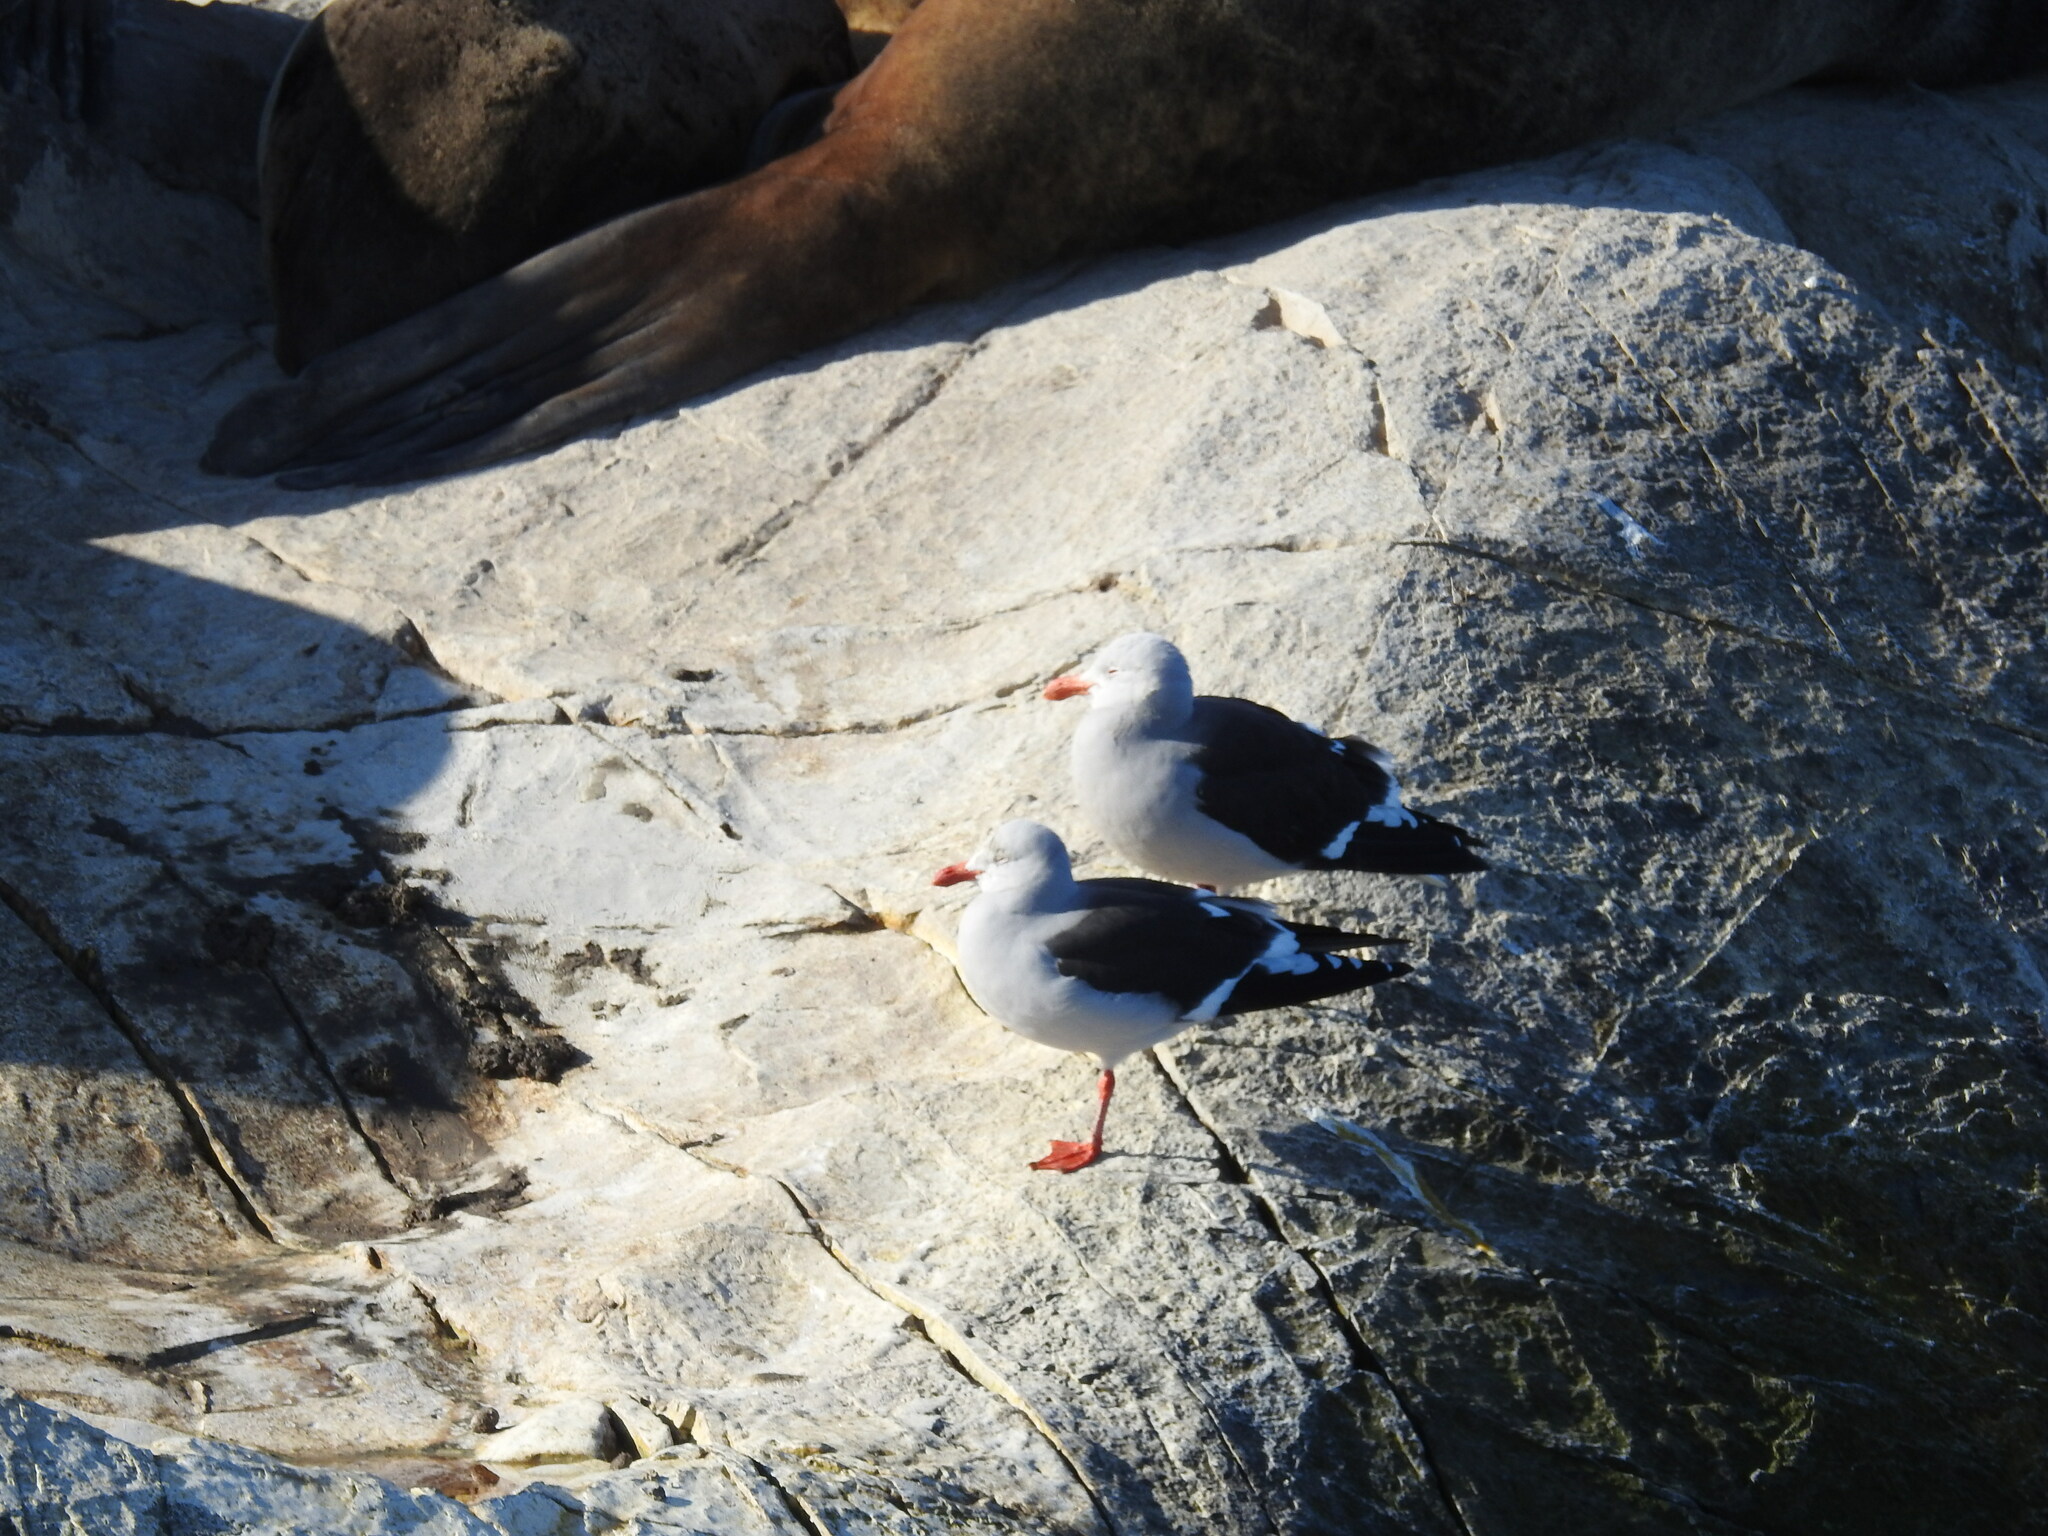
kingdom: Animalia
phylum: Chordata
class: Aves
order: Charadriiformes
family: Laridae
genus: Leucophaeus
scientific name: Leucophaeus scoresbii
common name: Dolphin gull
